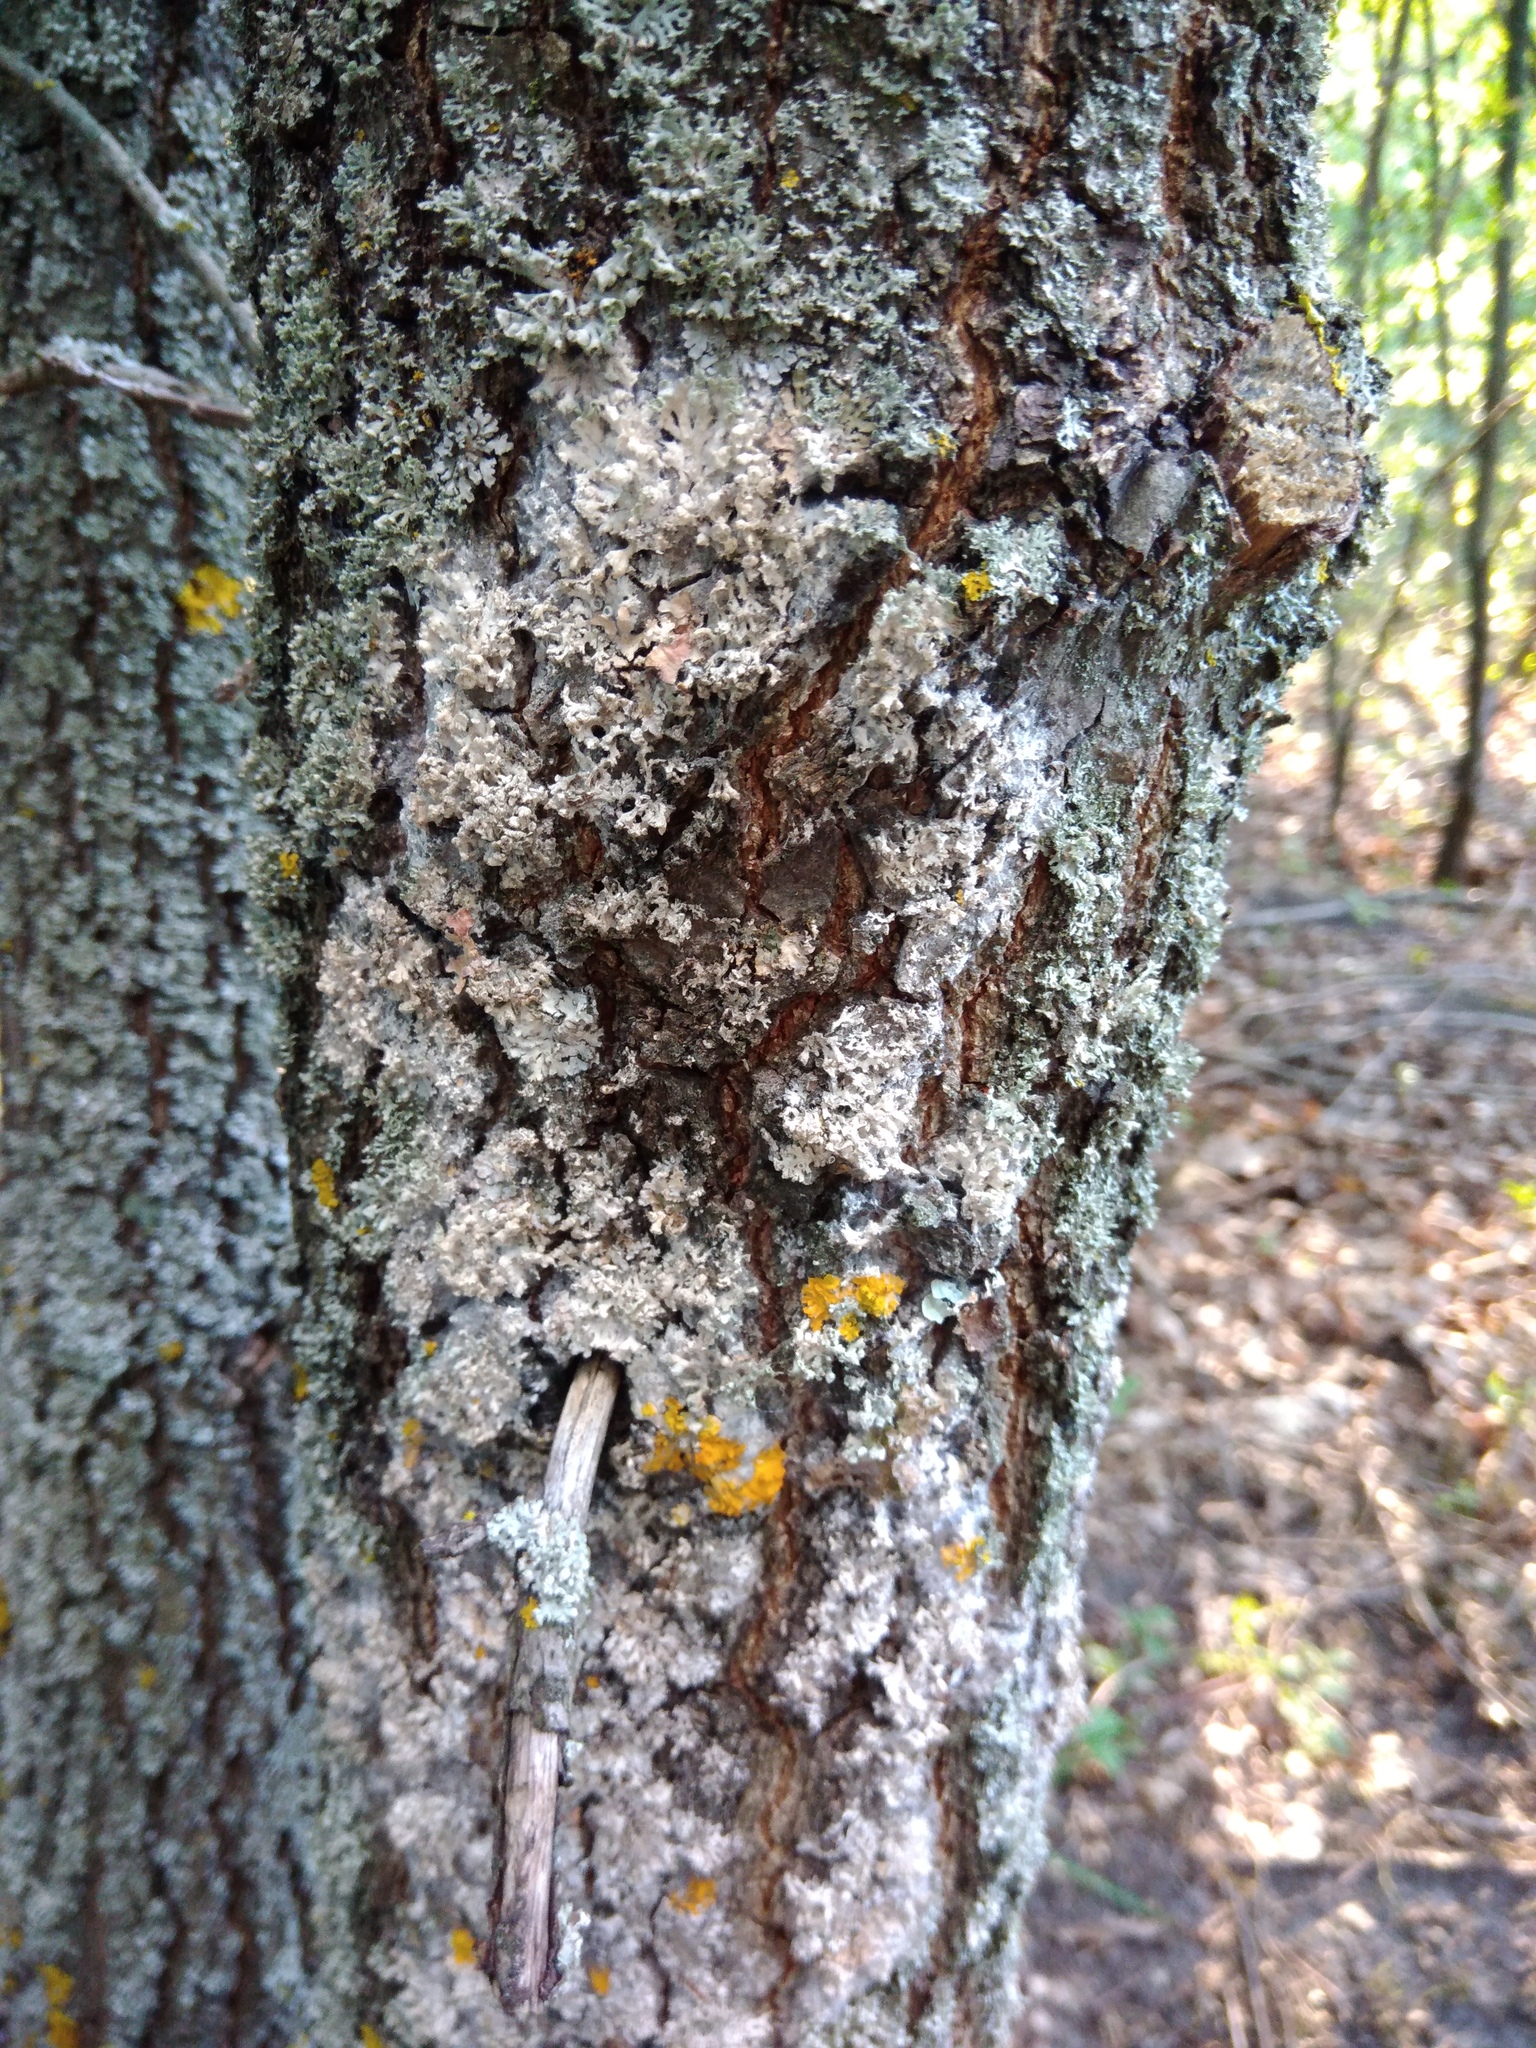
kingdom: Fungi
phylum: Basidiomycota
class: Agaricomycetes
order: Atheliales
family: Atheliaceae
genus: Athelia
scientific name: Athelia arachnoidea
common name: Candelabra duster
